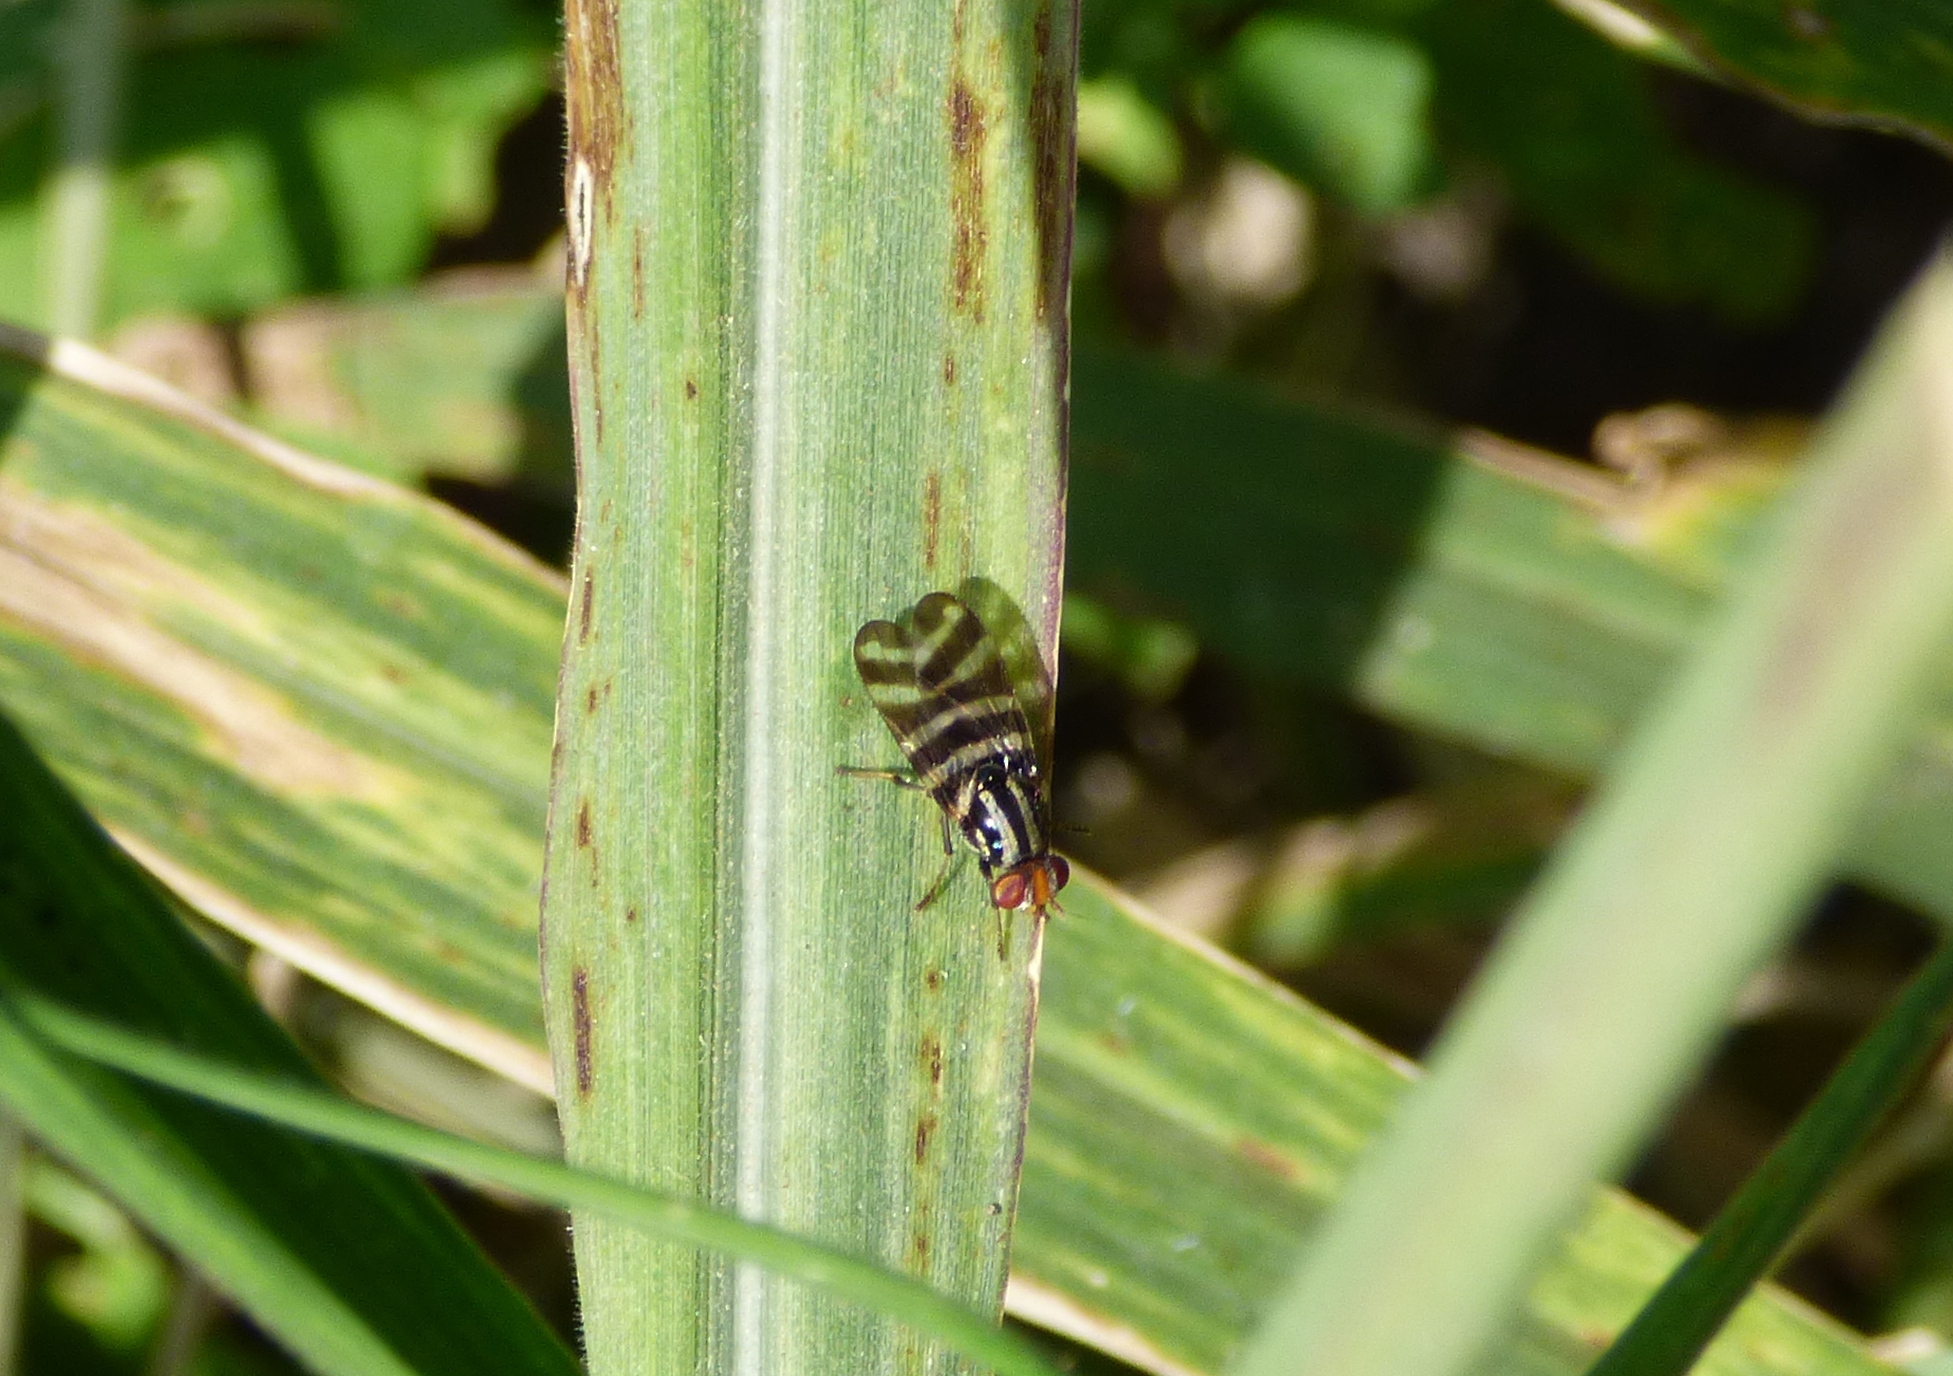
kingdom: Animalia
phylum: Arthropoda
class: Insecta
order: Diptera
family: Ulidiidae
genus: Pterotaenia
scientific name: Pterotaenia fasciata
